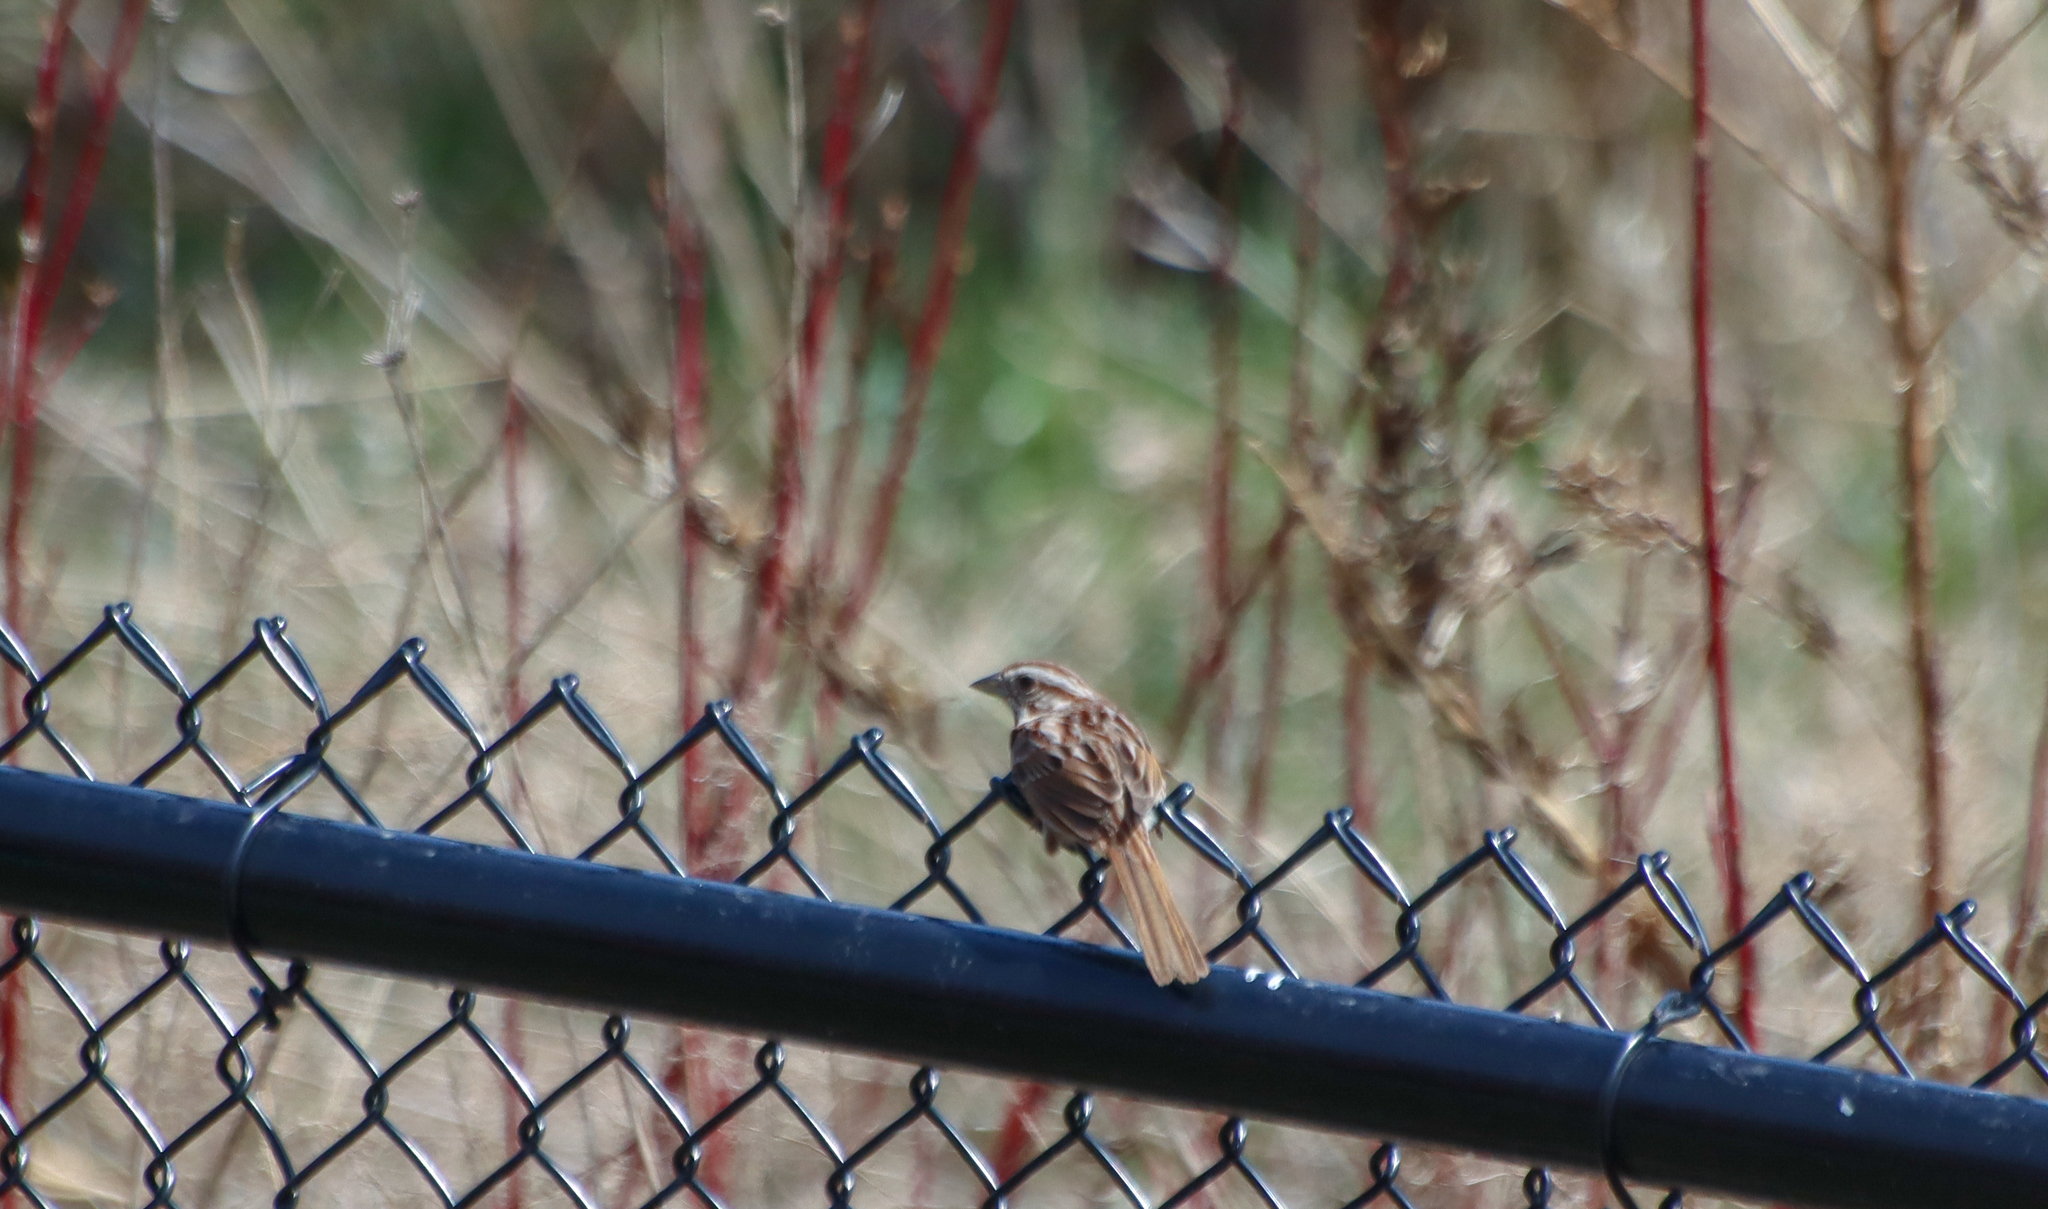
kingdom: Animalia
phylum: Chordata
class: Aves
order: Passeriformes
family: Passerellidae
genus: Melospiza
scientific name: Melospiza melodia
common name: Song sparrow
